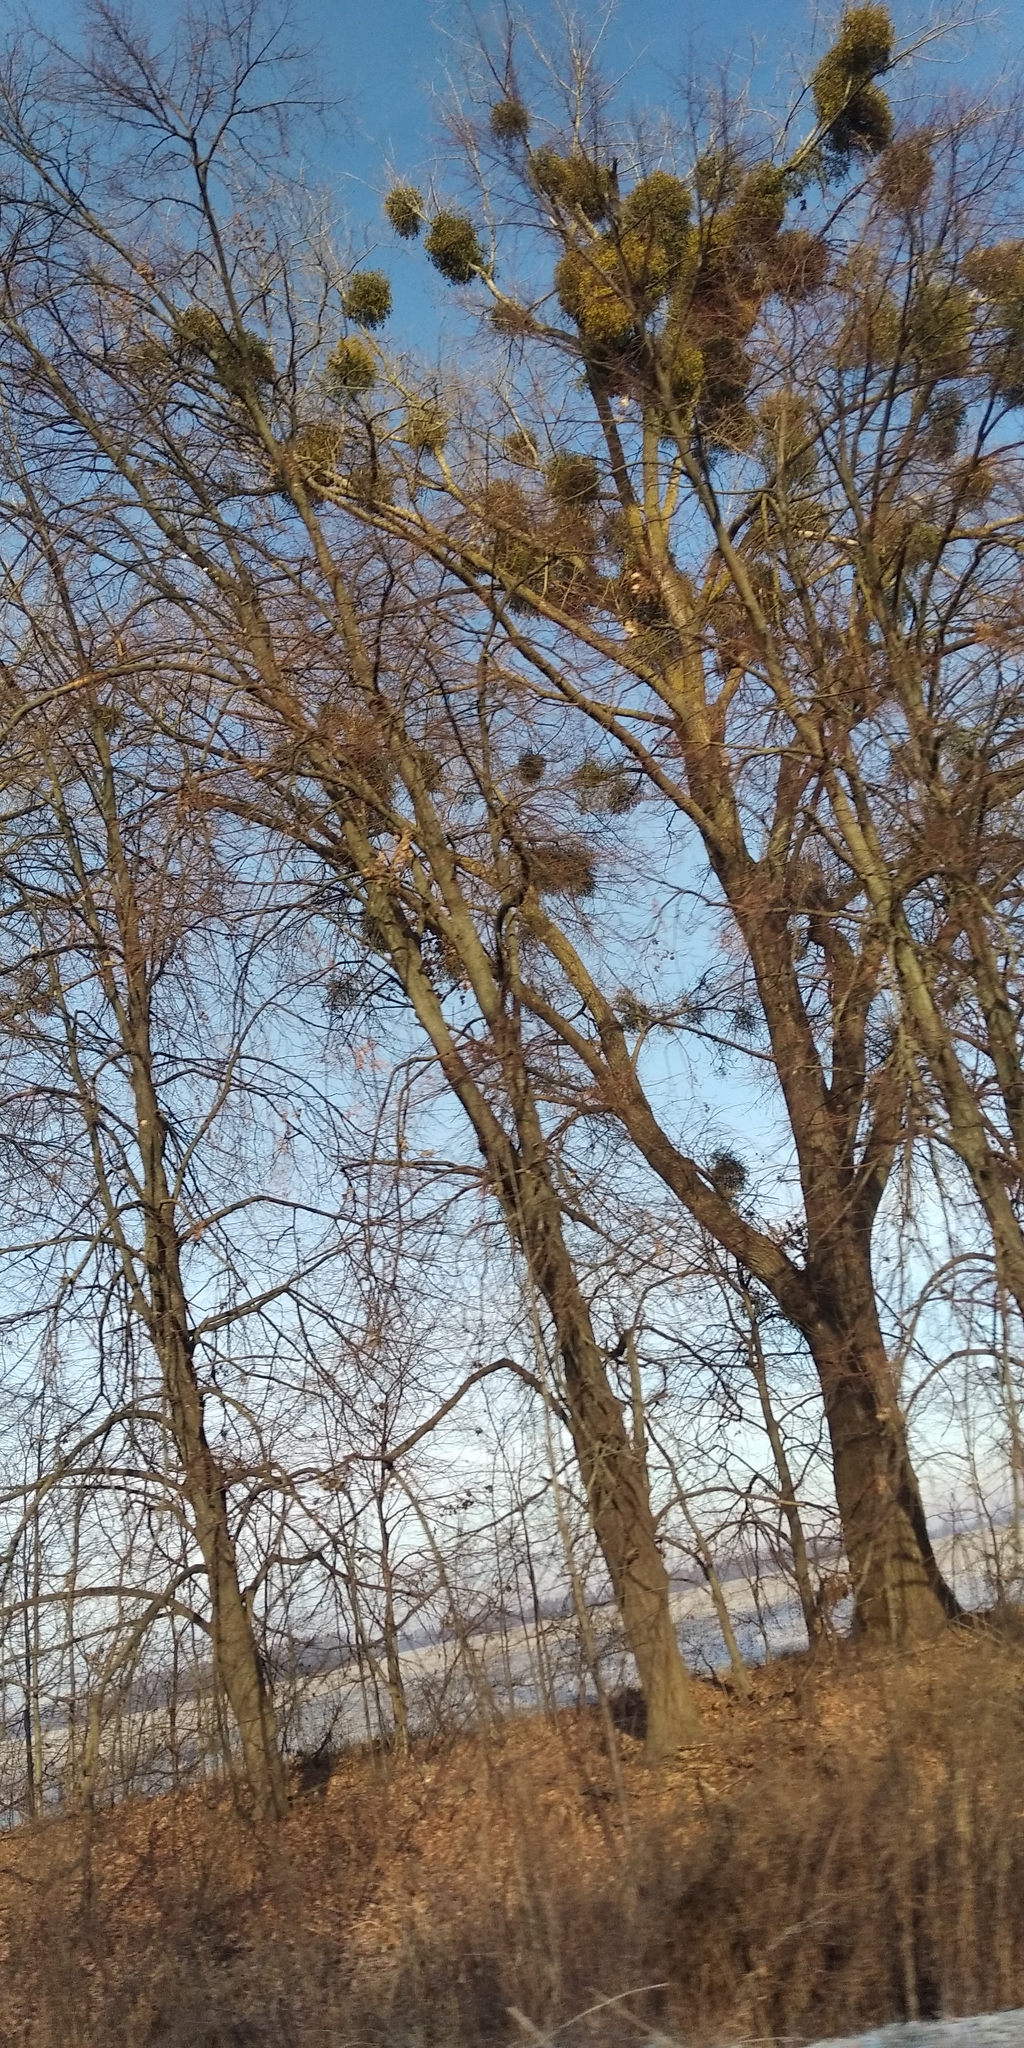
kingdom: Plantae
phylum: Tracheophyta
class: Magnoliopsida
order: Santalales
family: Viscaceae
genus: Viscum
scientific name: Viscum album
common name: Mistletoe
